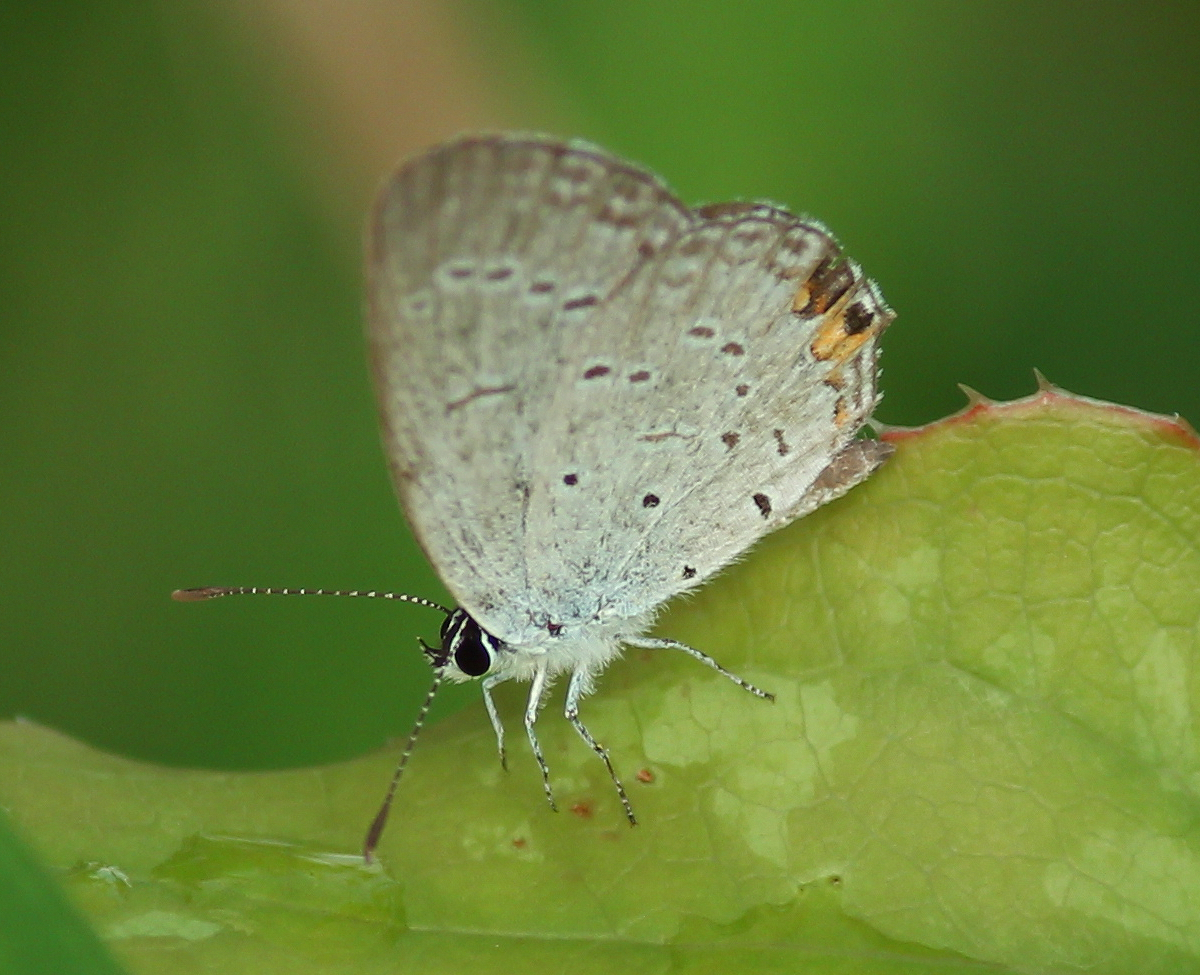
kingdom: Animalia
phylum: Arthropoda
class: Insecta
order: Lepidoptera
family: Lycaenidae
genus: Elkalyce
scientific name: Elkalyce comyntas
